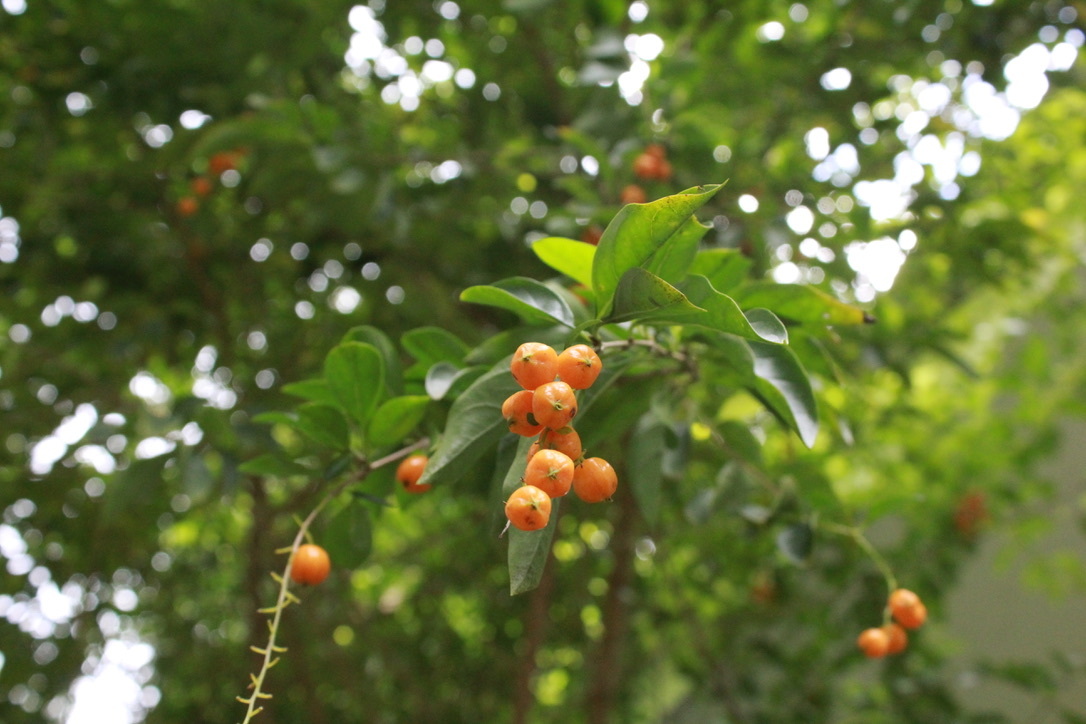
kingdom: Plantae
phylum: Tracheophyta
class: Magnoliopsida
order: Lamiales
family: Verbenaceae
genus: Duranta
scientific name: Duranta erecta
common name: Golden dewdrops
